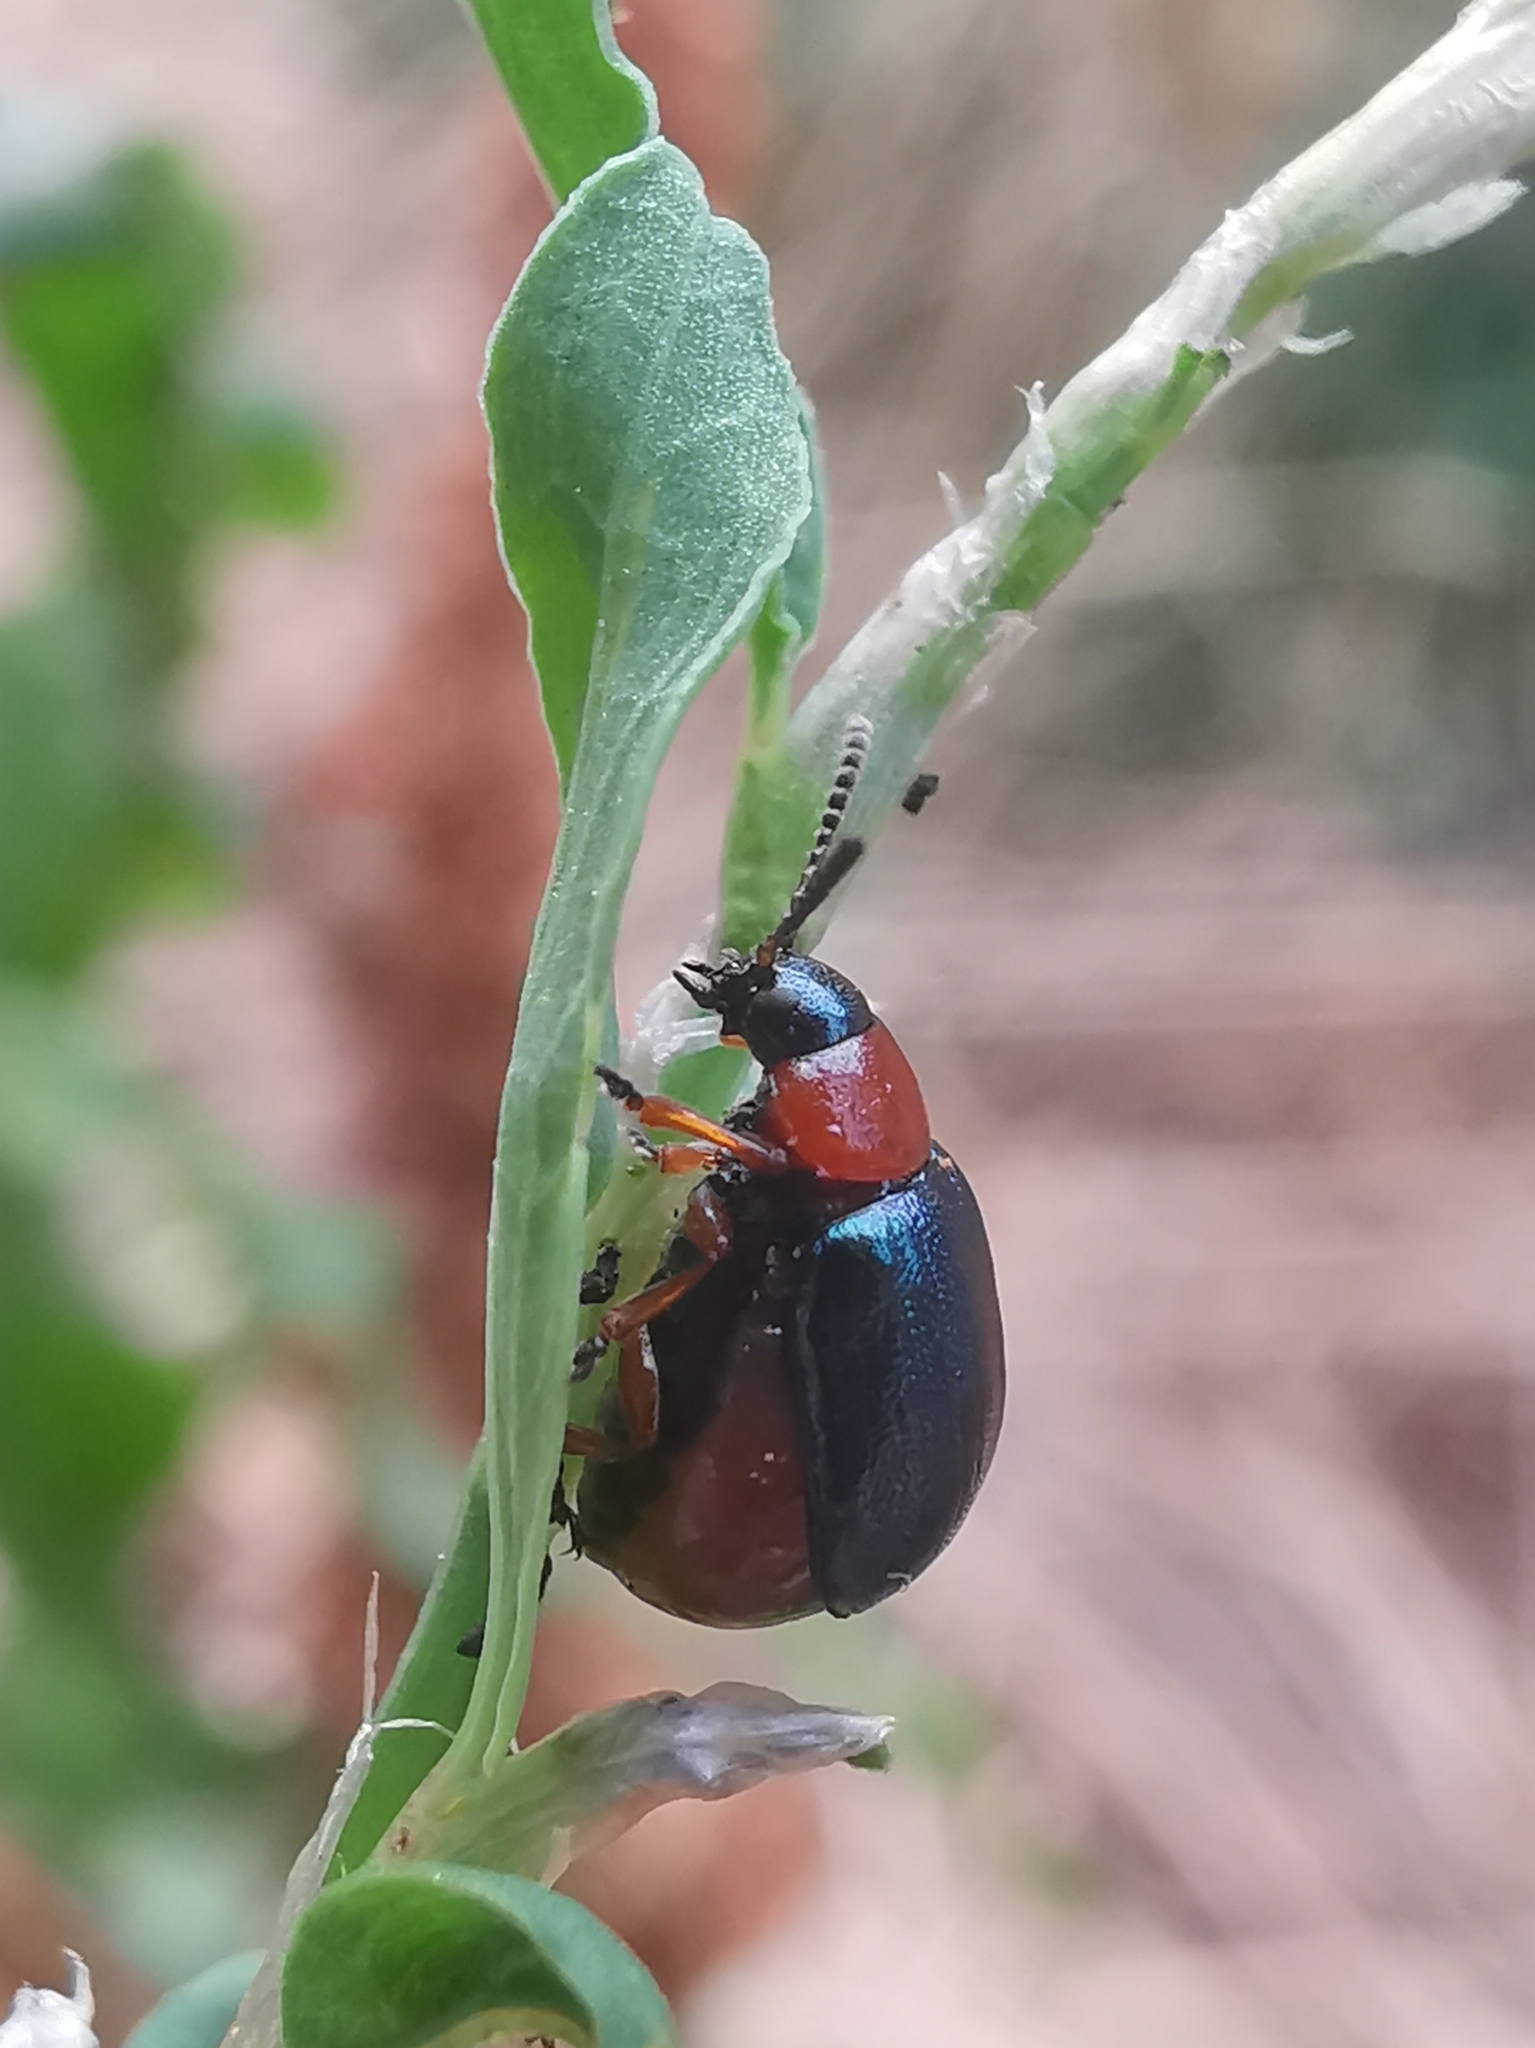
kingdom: Animalia
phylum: Arthropoda
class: Insecta
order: Coleoptera
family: Chrysomelidae
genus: Gastrophysa
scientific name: Gastrophysa polygoni
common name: Knotweed leaf beetle
